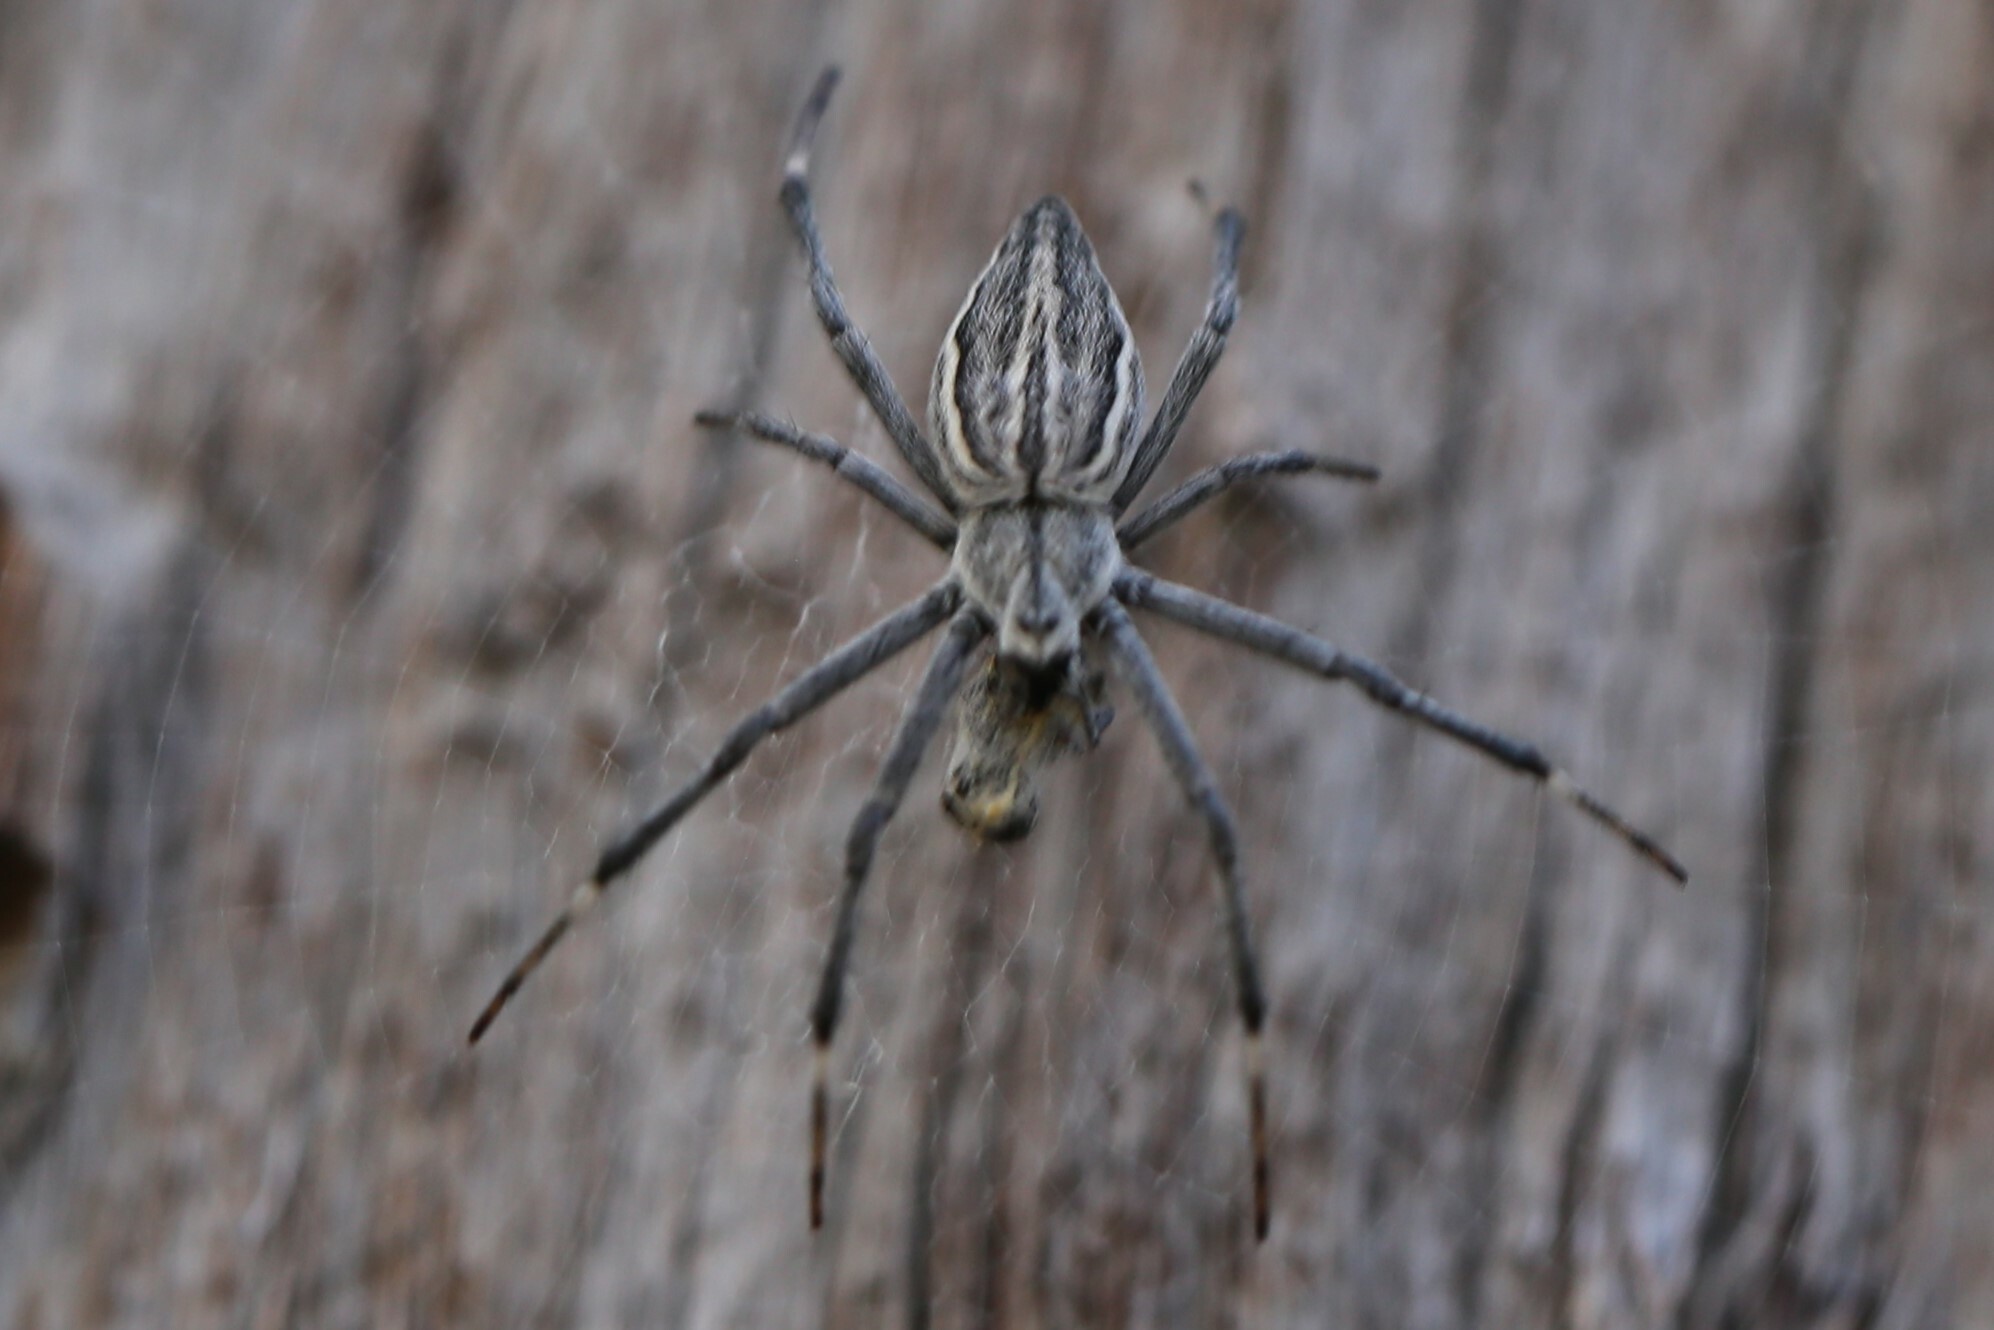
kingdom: Animalia
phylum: Arthropoda
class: Arachnida
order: Araneae
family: Araneidae
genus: Argiope
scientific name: Argiope ocyaloides
